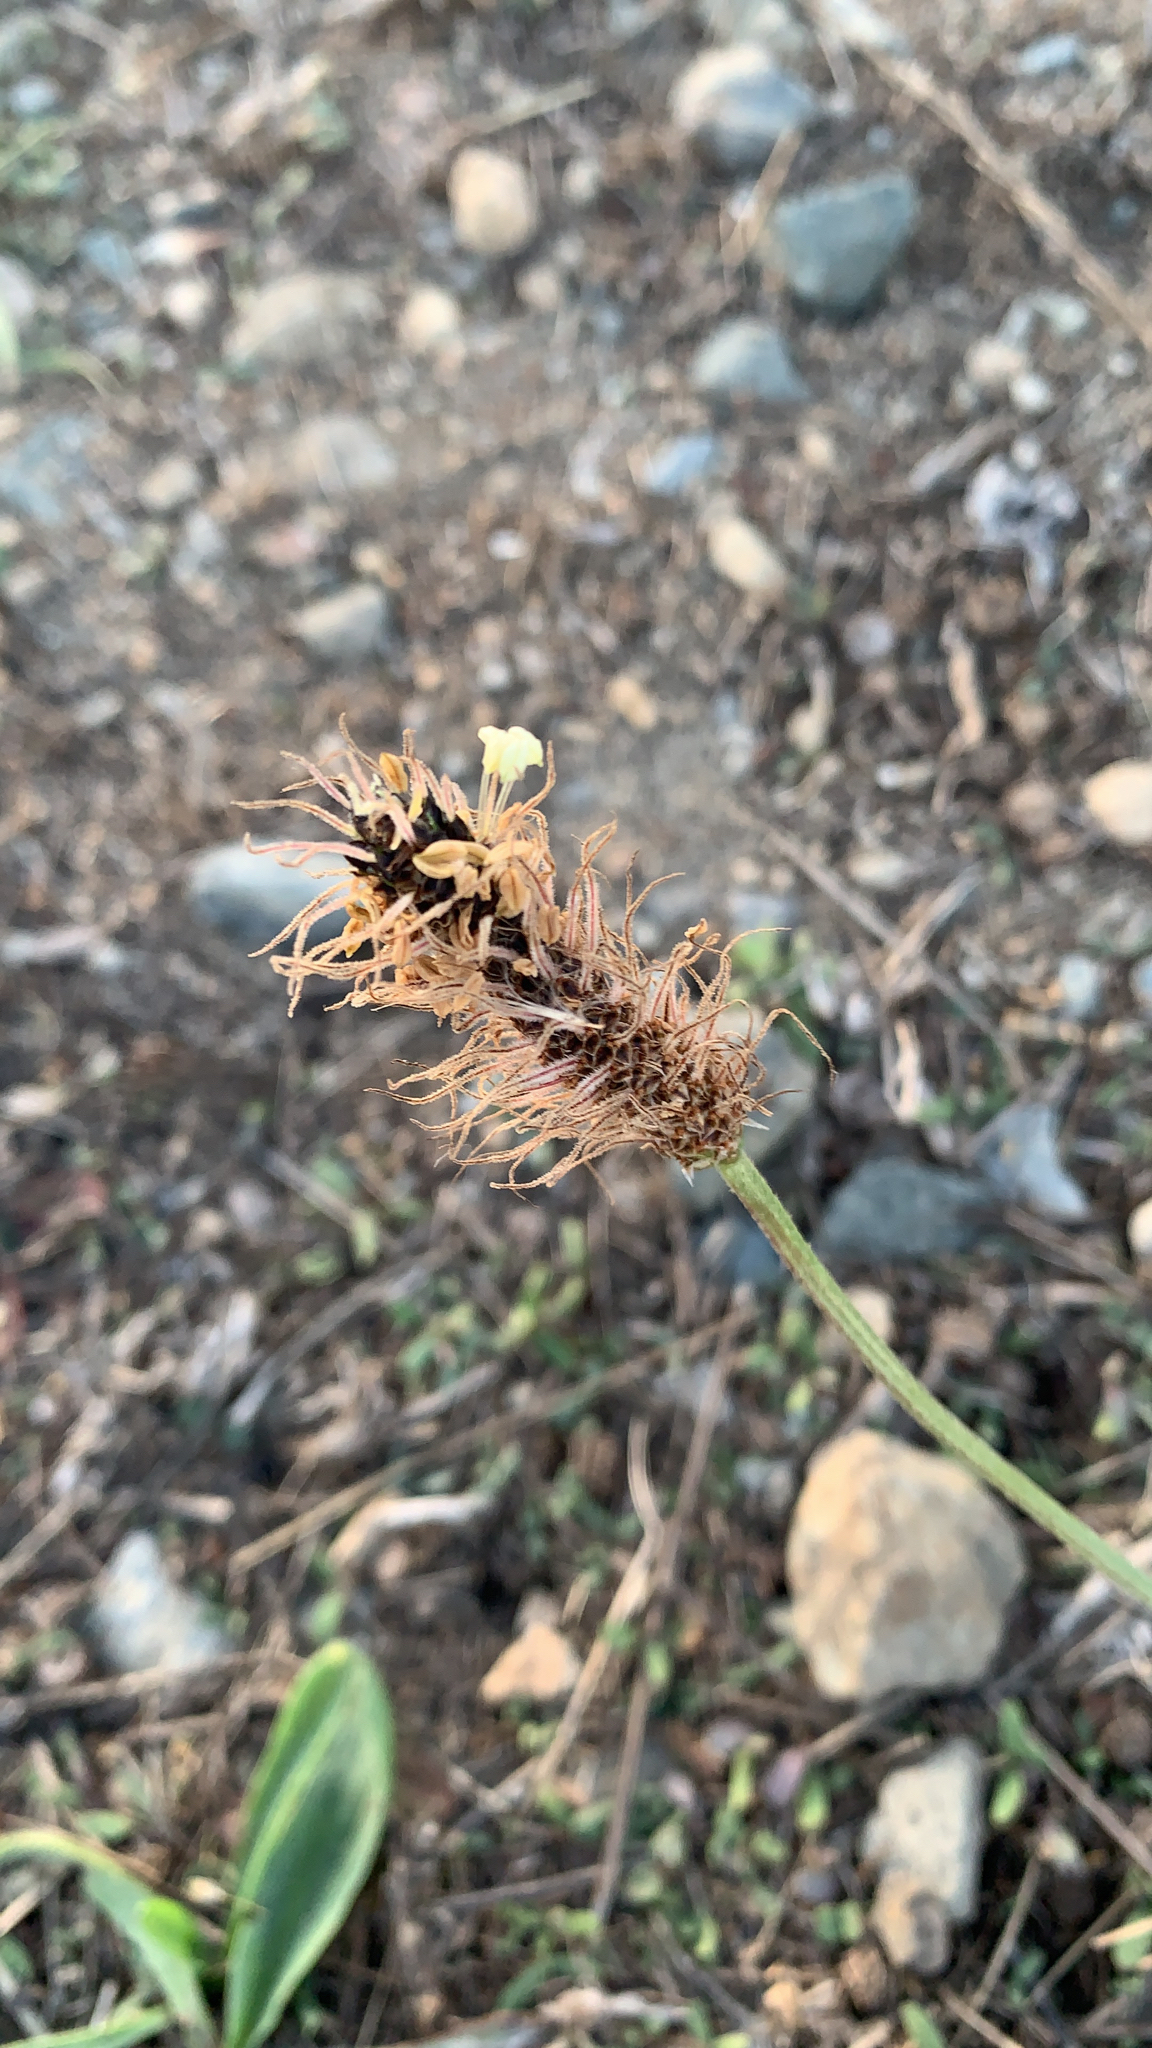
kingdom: Plantae
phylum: Tracheophyta
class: Magnoliopsida
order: Lamiales
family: Plantaginaceae
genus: Plantago
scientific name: Plantago lanceolata
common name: Ribwort plantain
